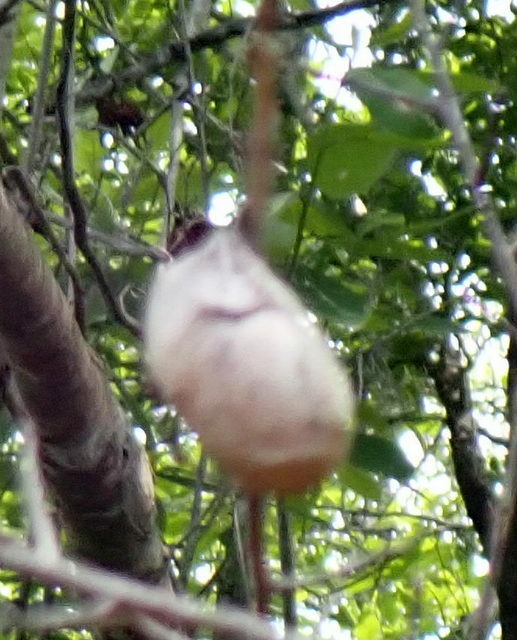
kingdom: Animalia
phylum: Arthropoda
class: Insecta
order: Lepidoptera
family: Saturniidae
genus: Antheraea
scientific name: Antheraea polyphemus
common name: Polyphemus moth
